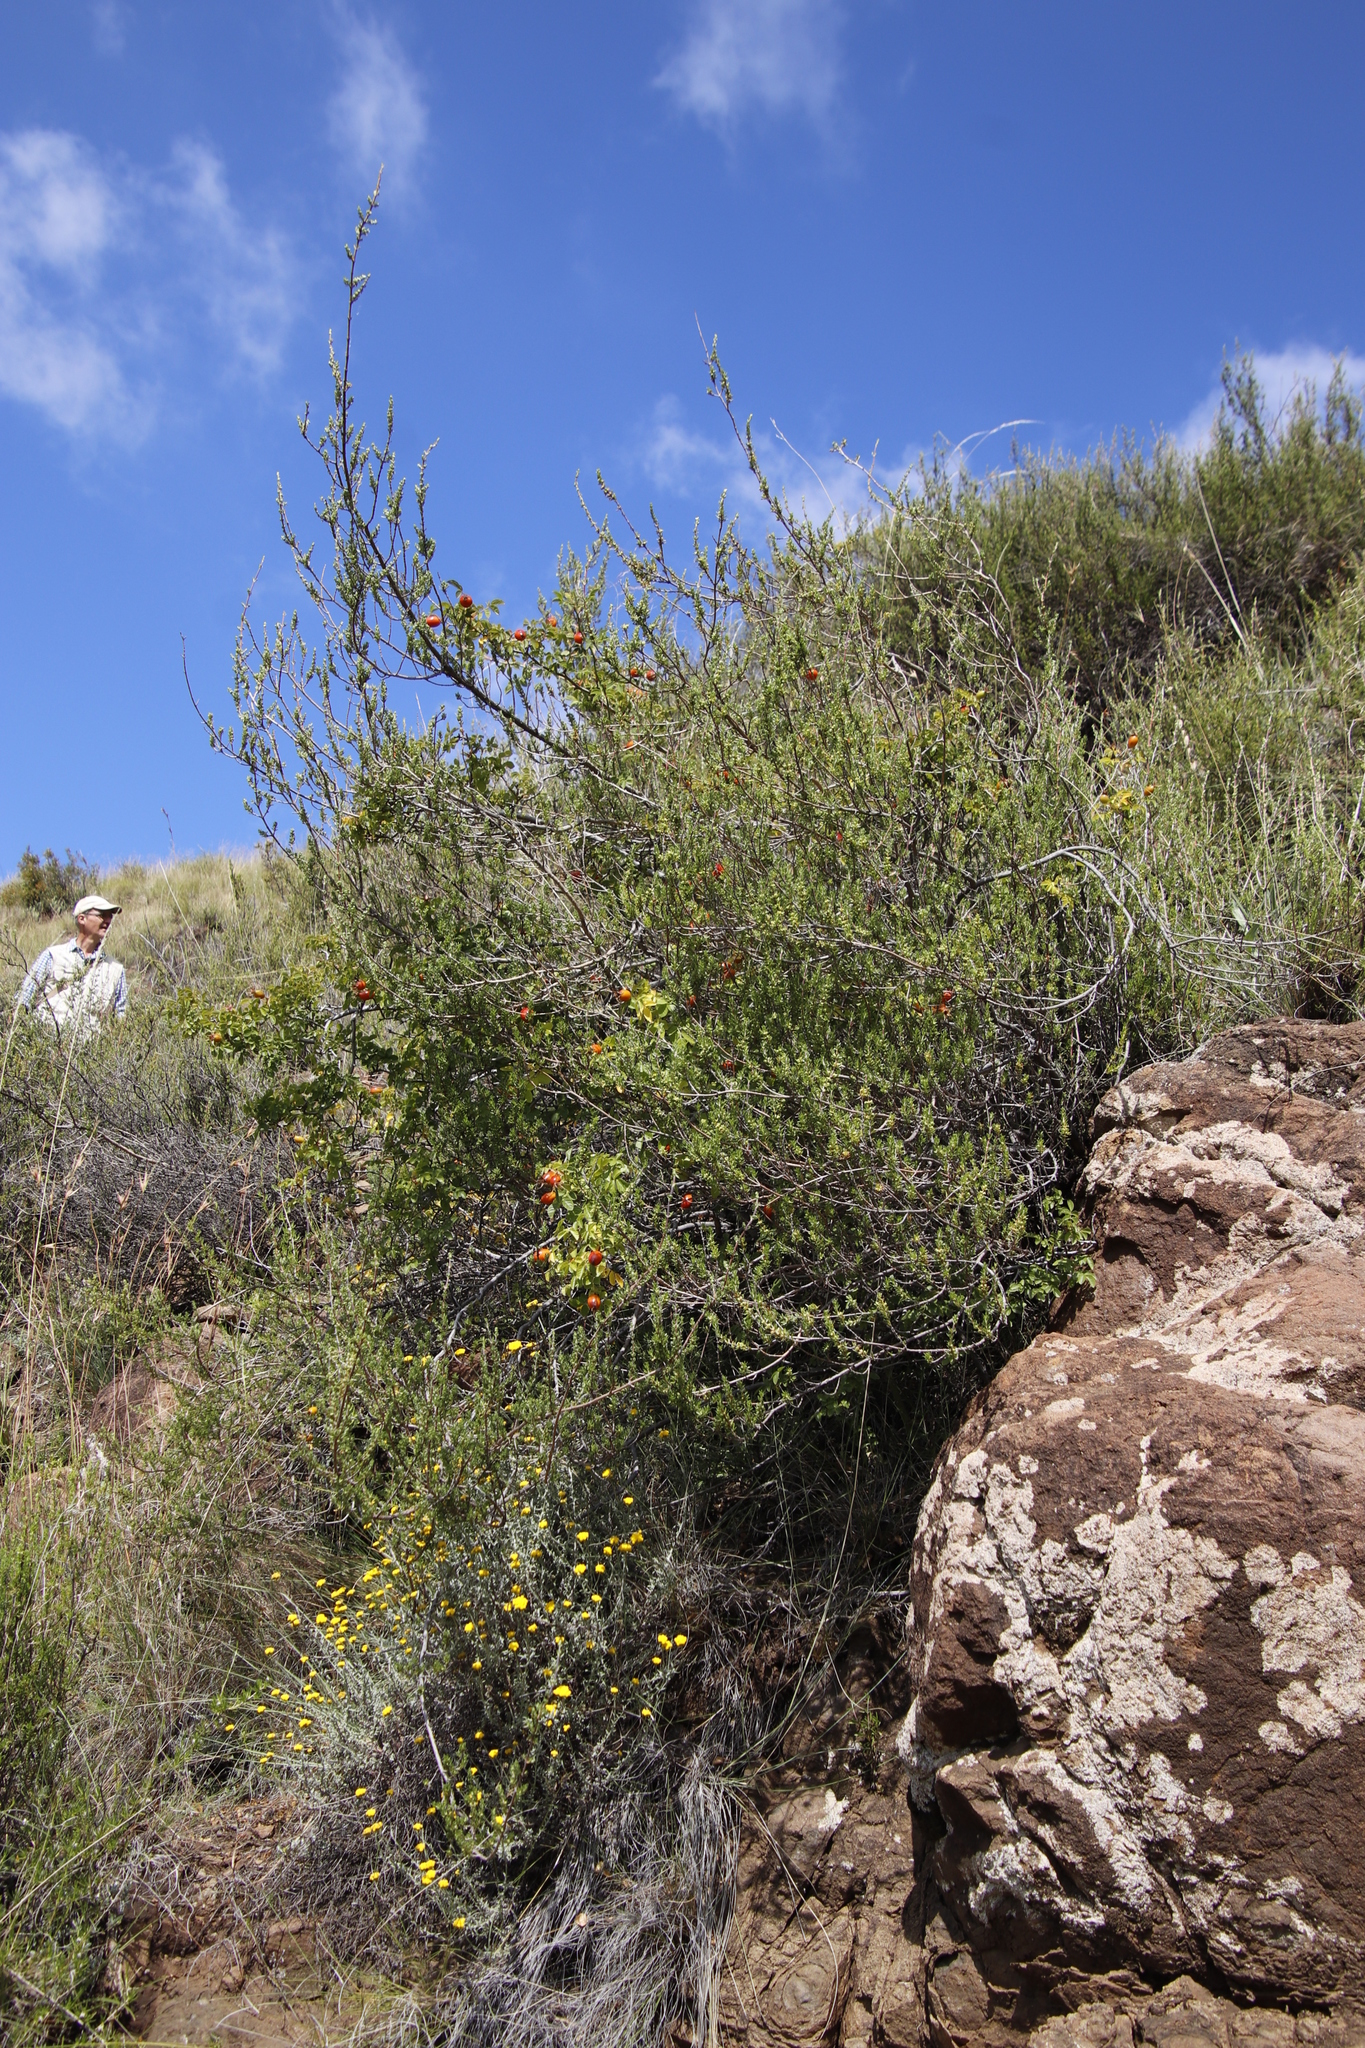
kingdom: Plantae
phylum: Tracheophyta
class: Magnoliopsida
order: Rosales
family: Rosaceae
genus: Rosa
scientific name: Rosa rubiginosa
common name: Sweet-briar
